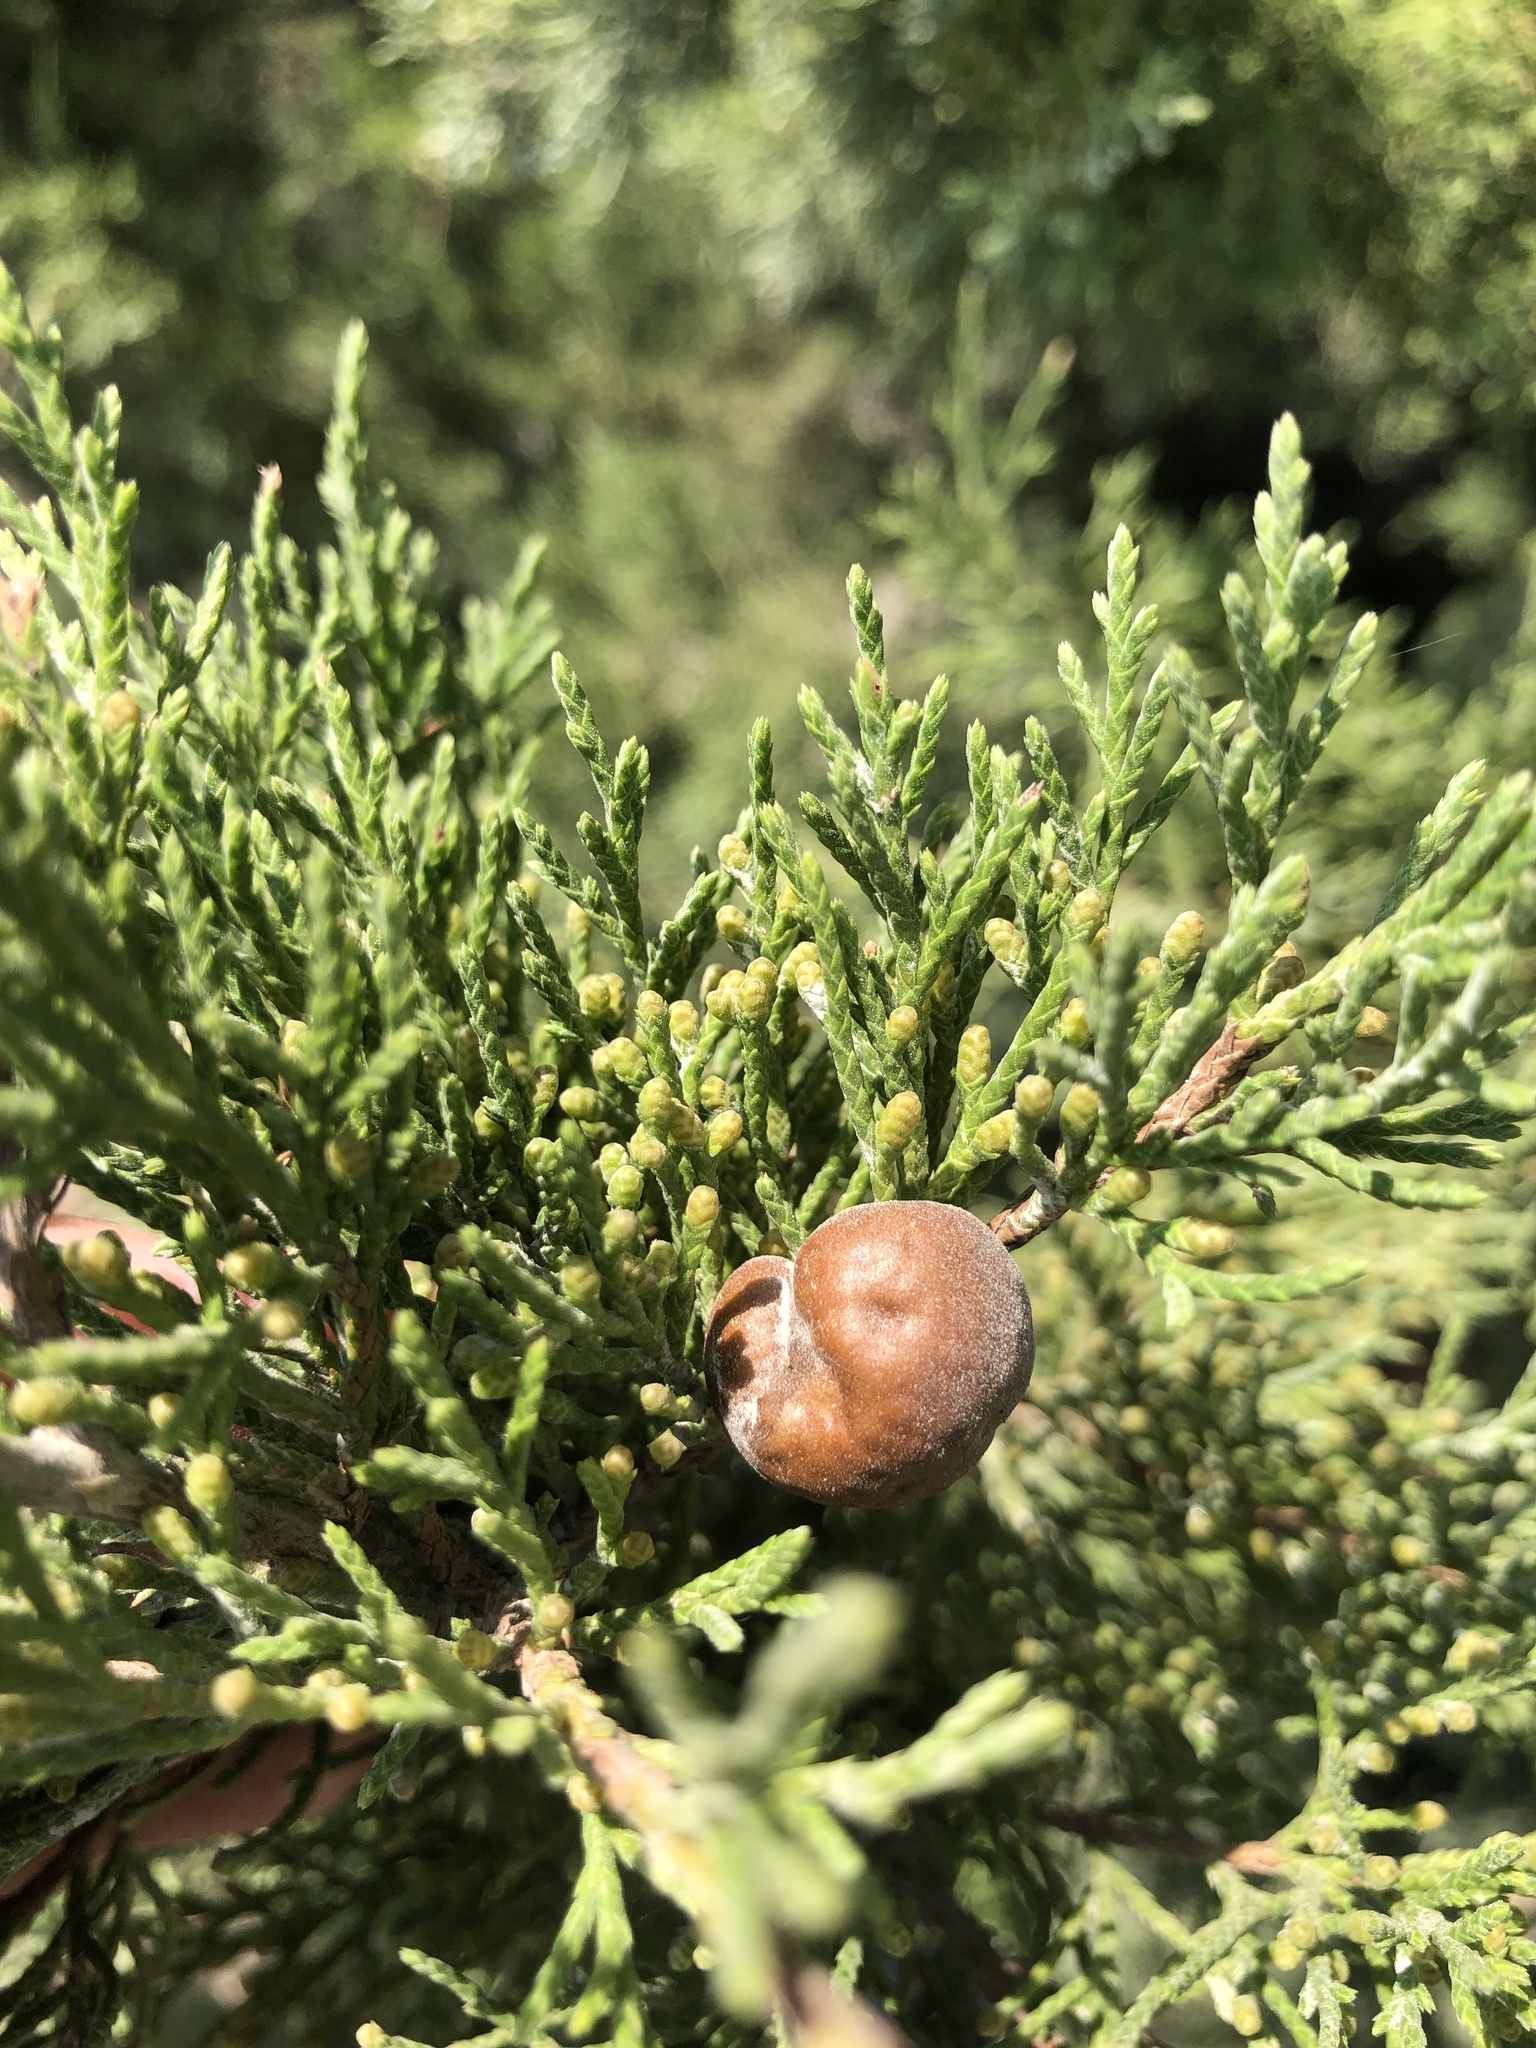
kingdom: Fungi
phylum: Basidiomycota
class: Pucciniomycetes
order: Pucciniales
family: Gymnosporangiaceae
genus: Gymnosporangium
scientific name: Gymnosporangium juniperi-virginianae
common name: Juniper-apple rust
